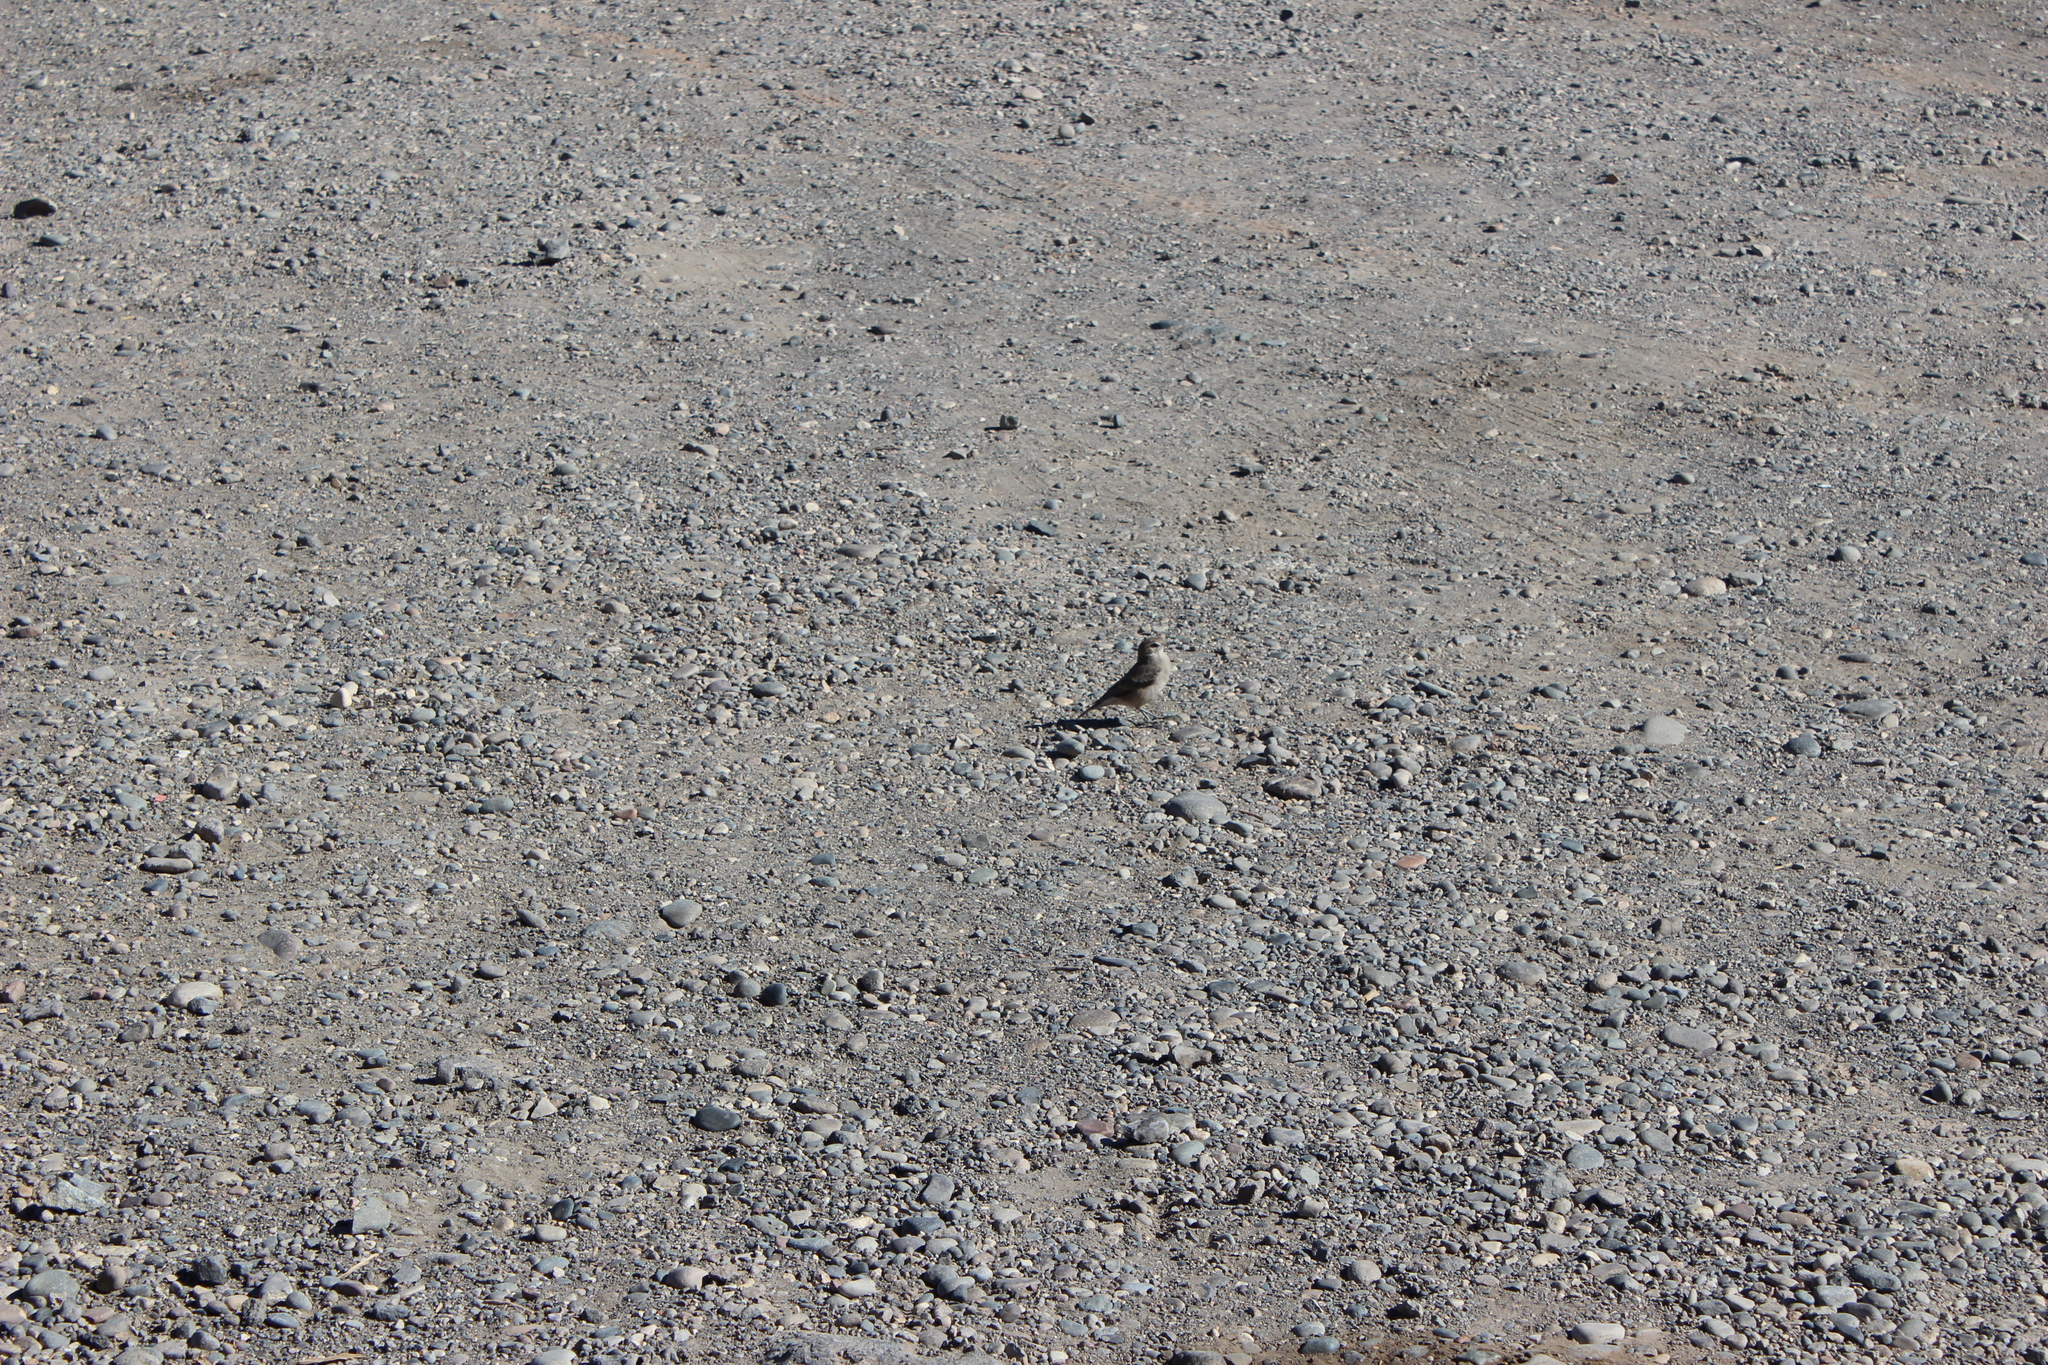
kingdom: Animalia
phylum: Chordata
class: Aves
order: Passeriformes
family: Furnariidae
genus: Geositta
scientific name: Geositta rufipennis
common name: Rufous-banded miner
